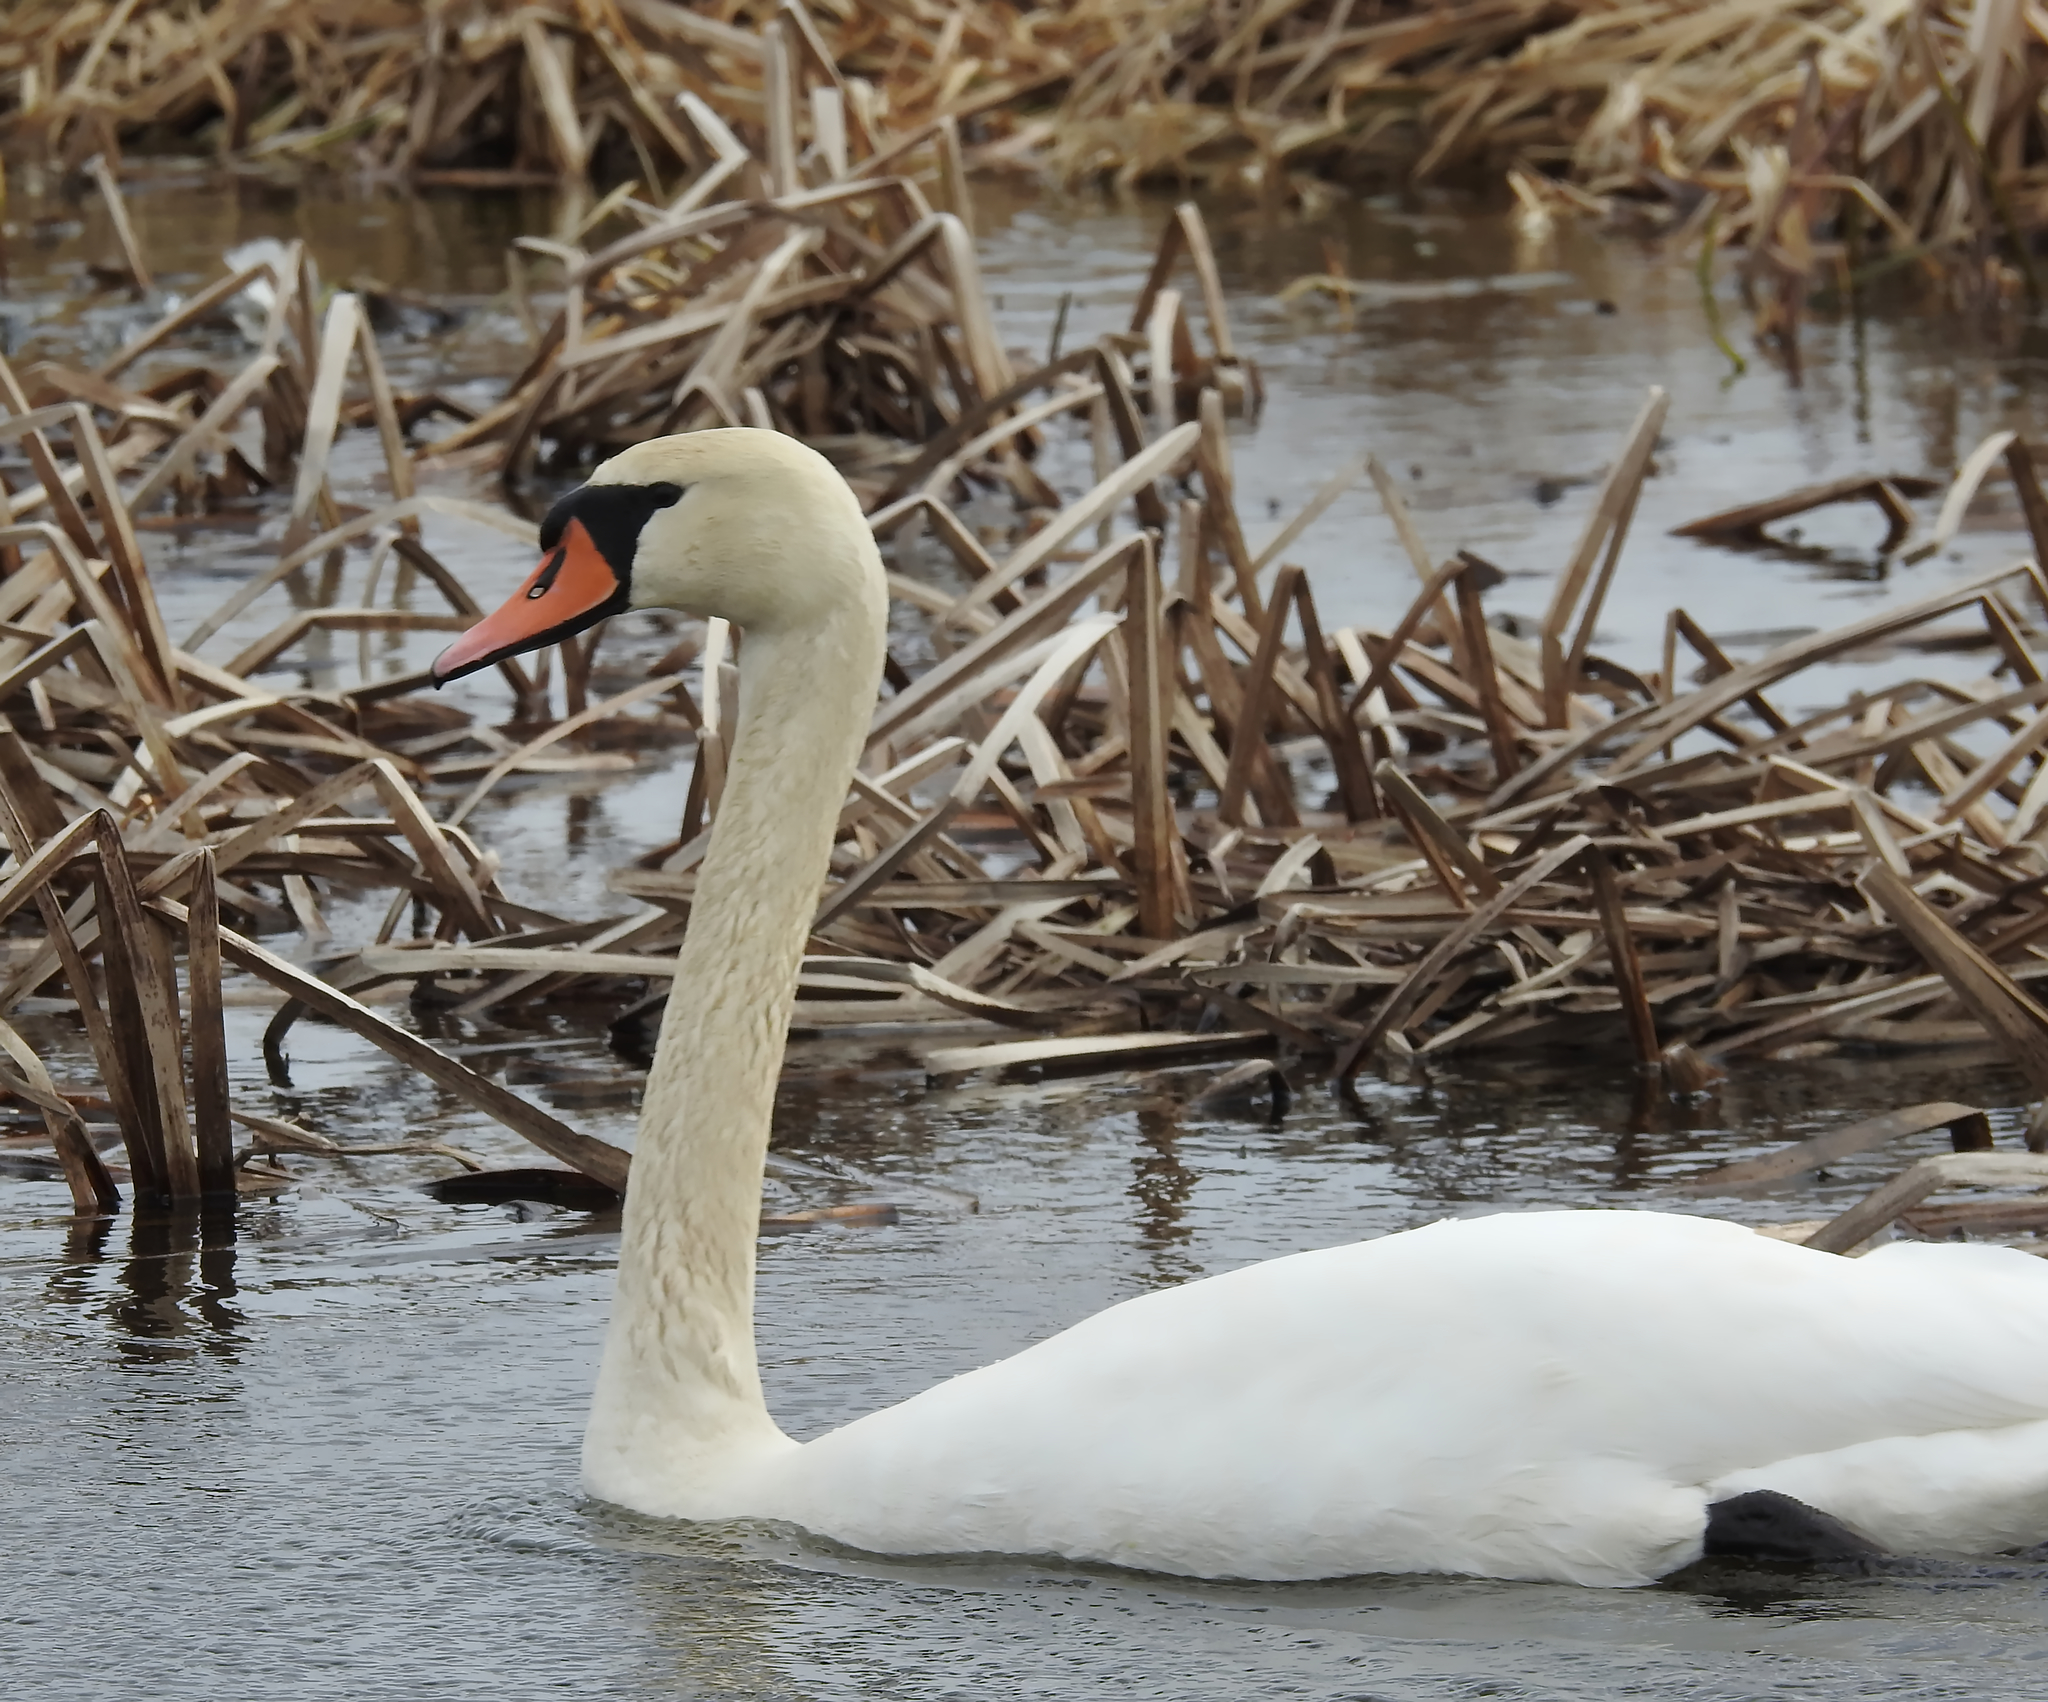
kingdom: Animalia
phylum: Chordata
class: Aves
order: Anseriformes
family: Anatidae
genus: Cygnus
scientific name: Cygnus olor
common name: Mute swan
